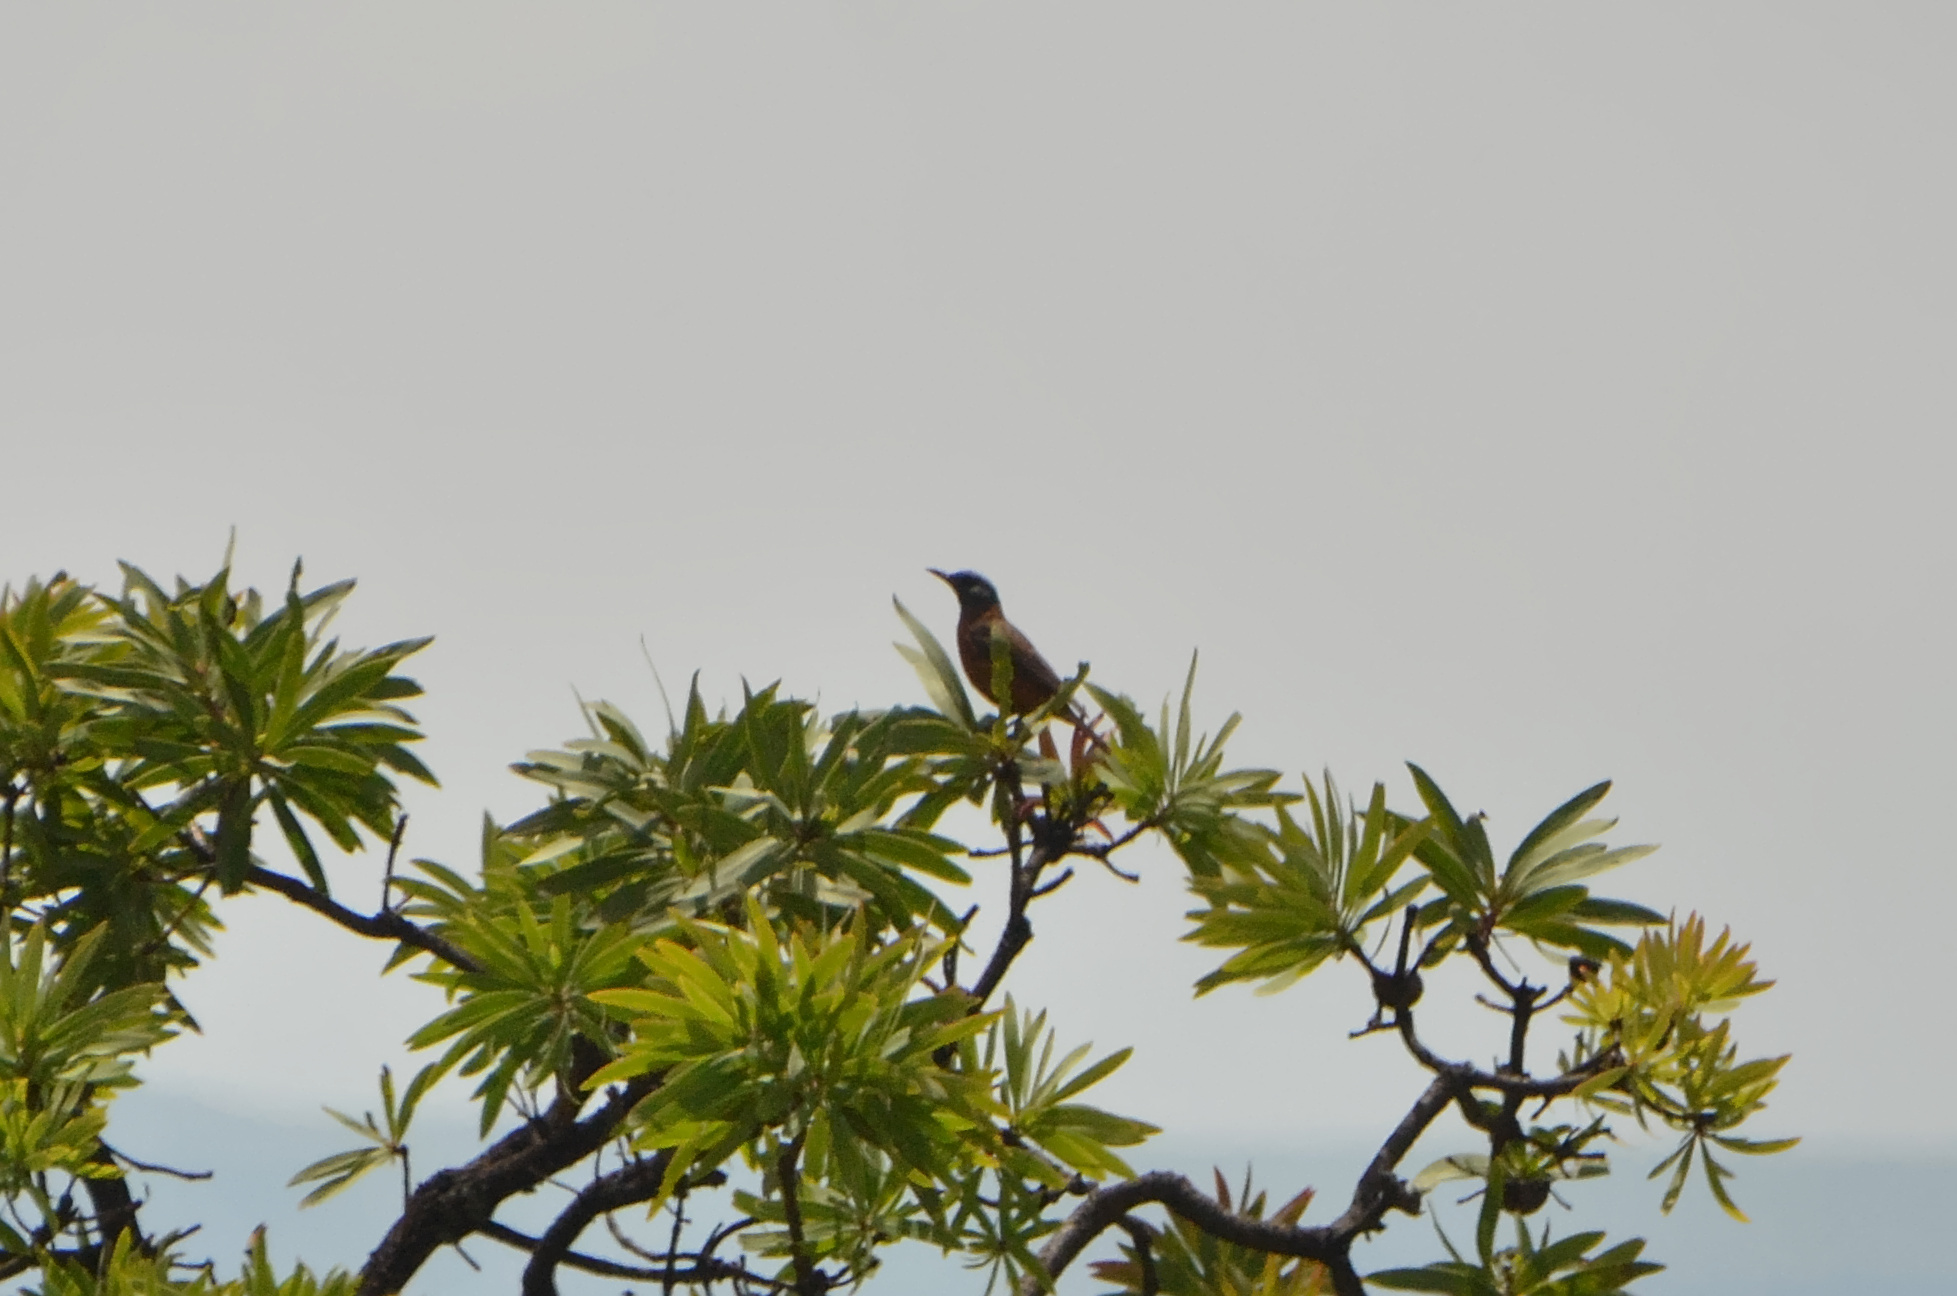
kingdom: Animalia
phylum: Chordata
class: Aves
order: Passeriformes
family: Muscicapidae
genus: Monticola
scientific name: Monticola rupestris
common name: Cape rock thrush
